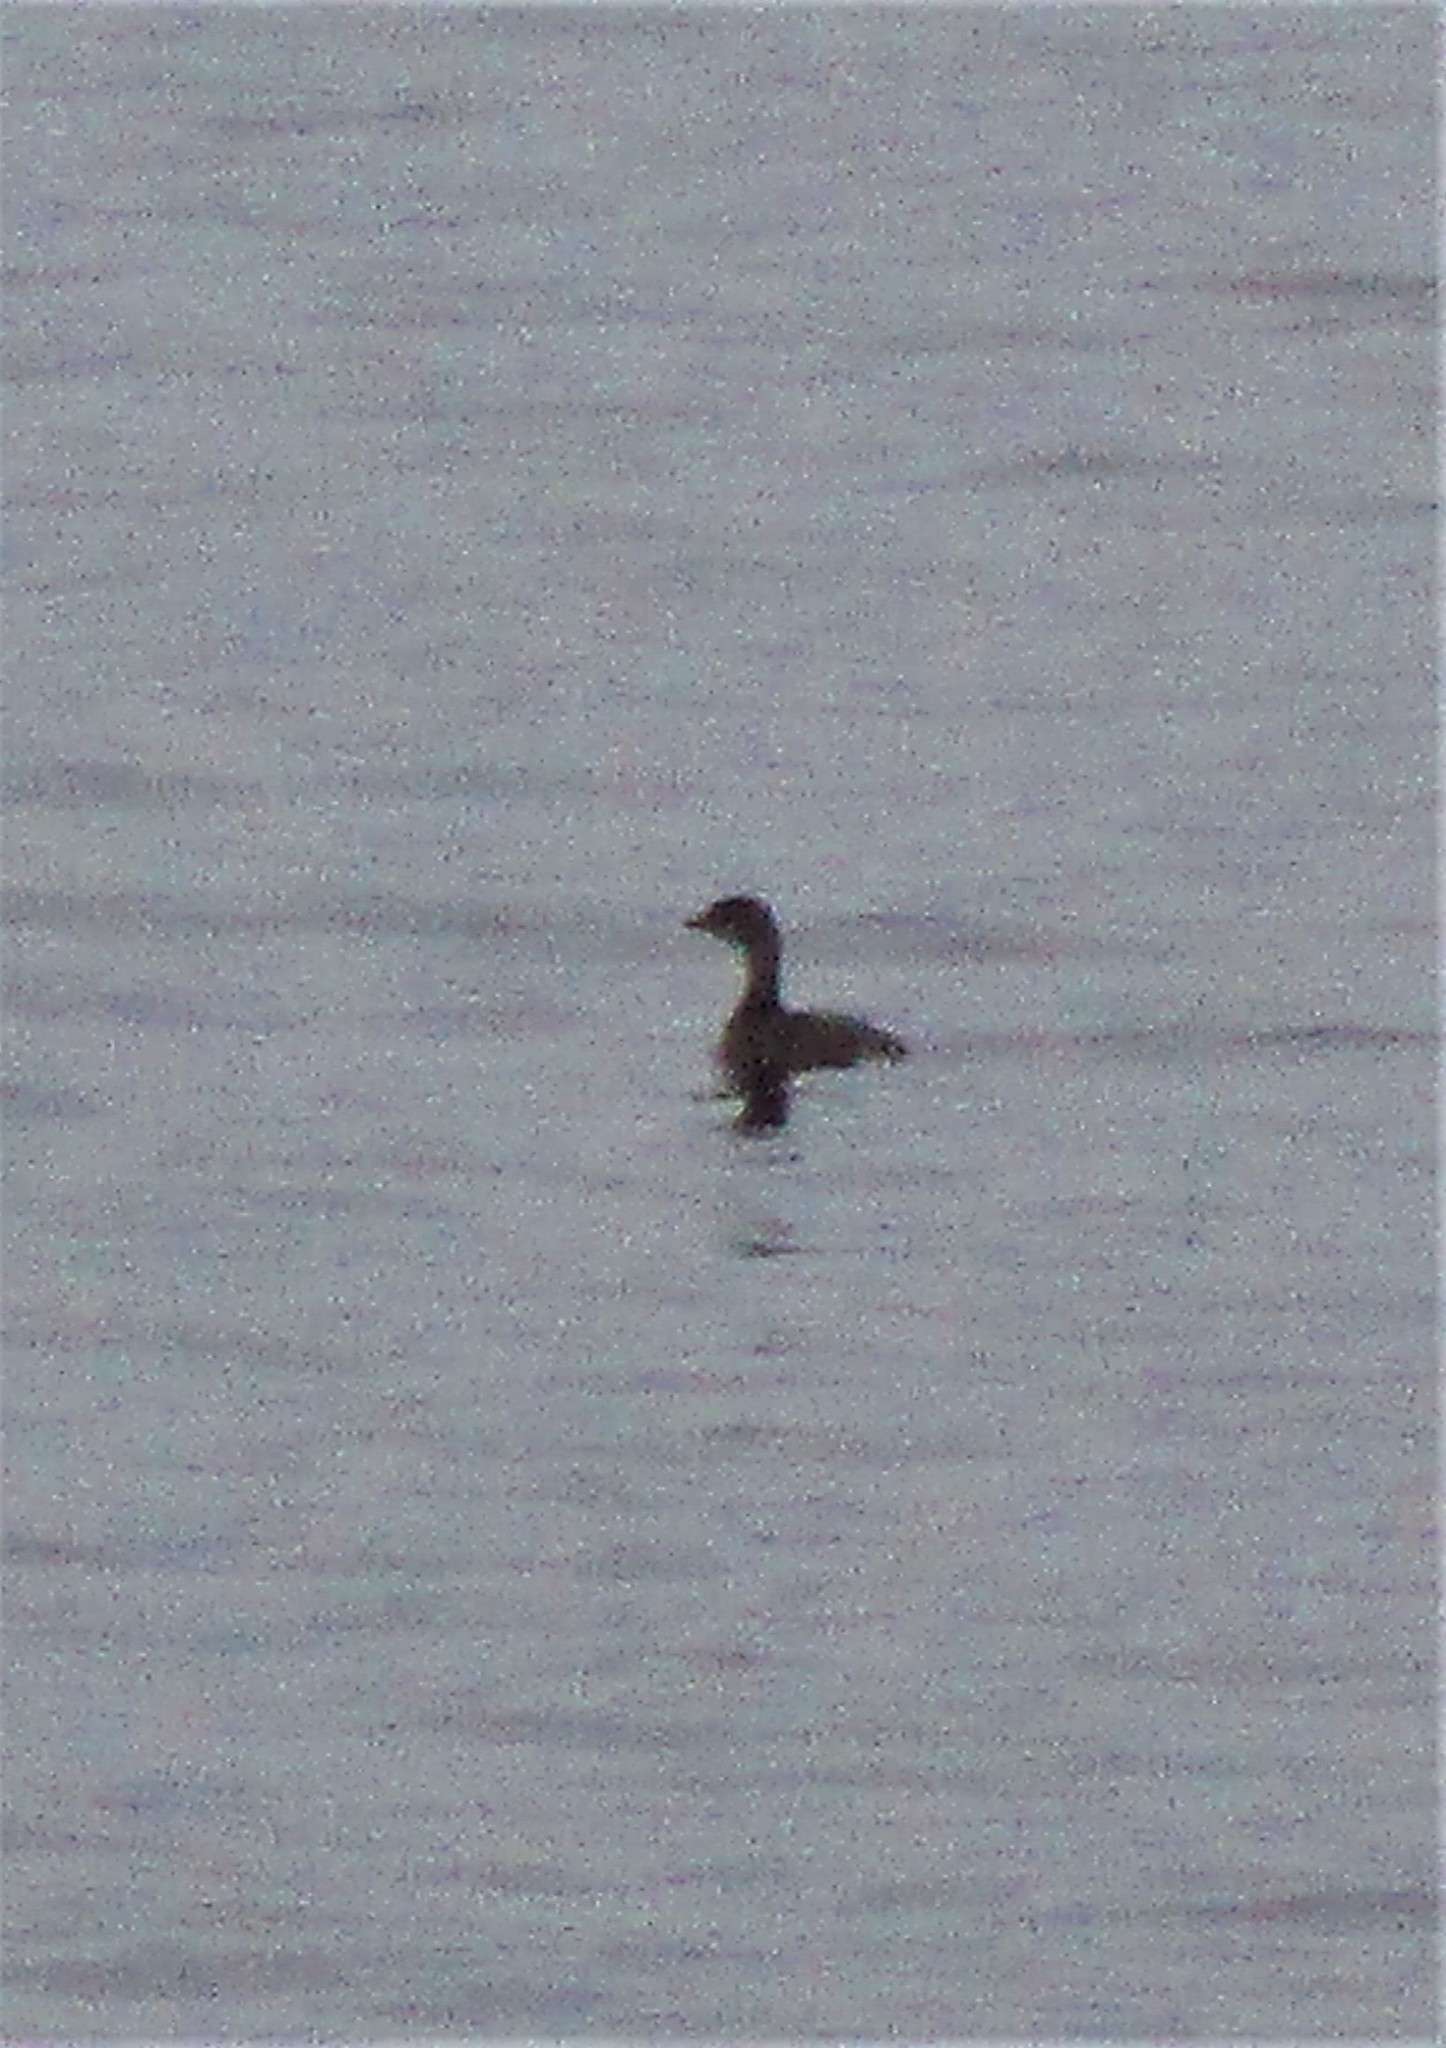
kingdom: Animalia
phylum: Chordata
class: Aves
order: Podicipediformes
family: Podicipedidae
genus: Podilymbus
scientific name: Podilymbus podiceps
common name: Pied-billed grebe
